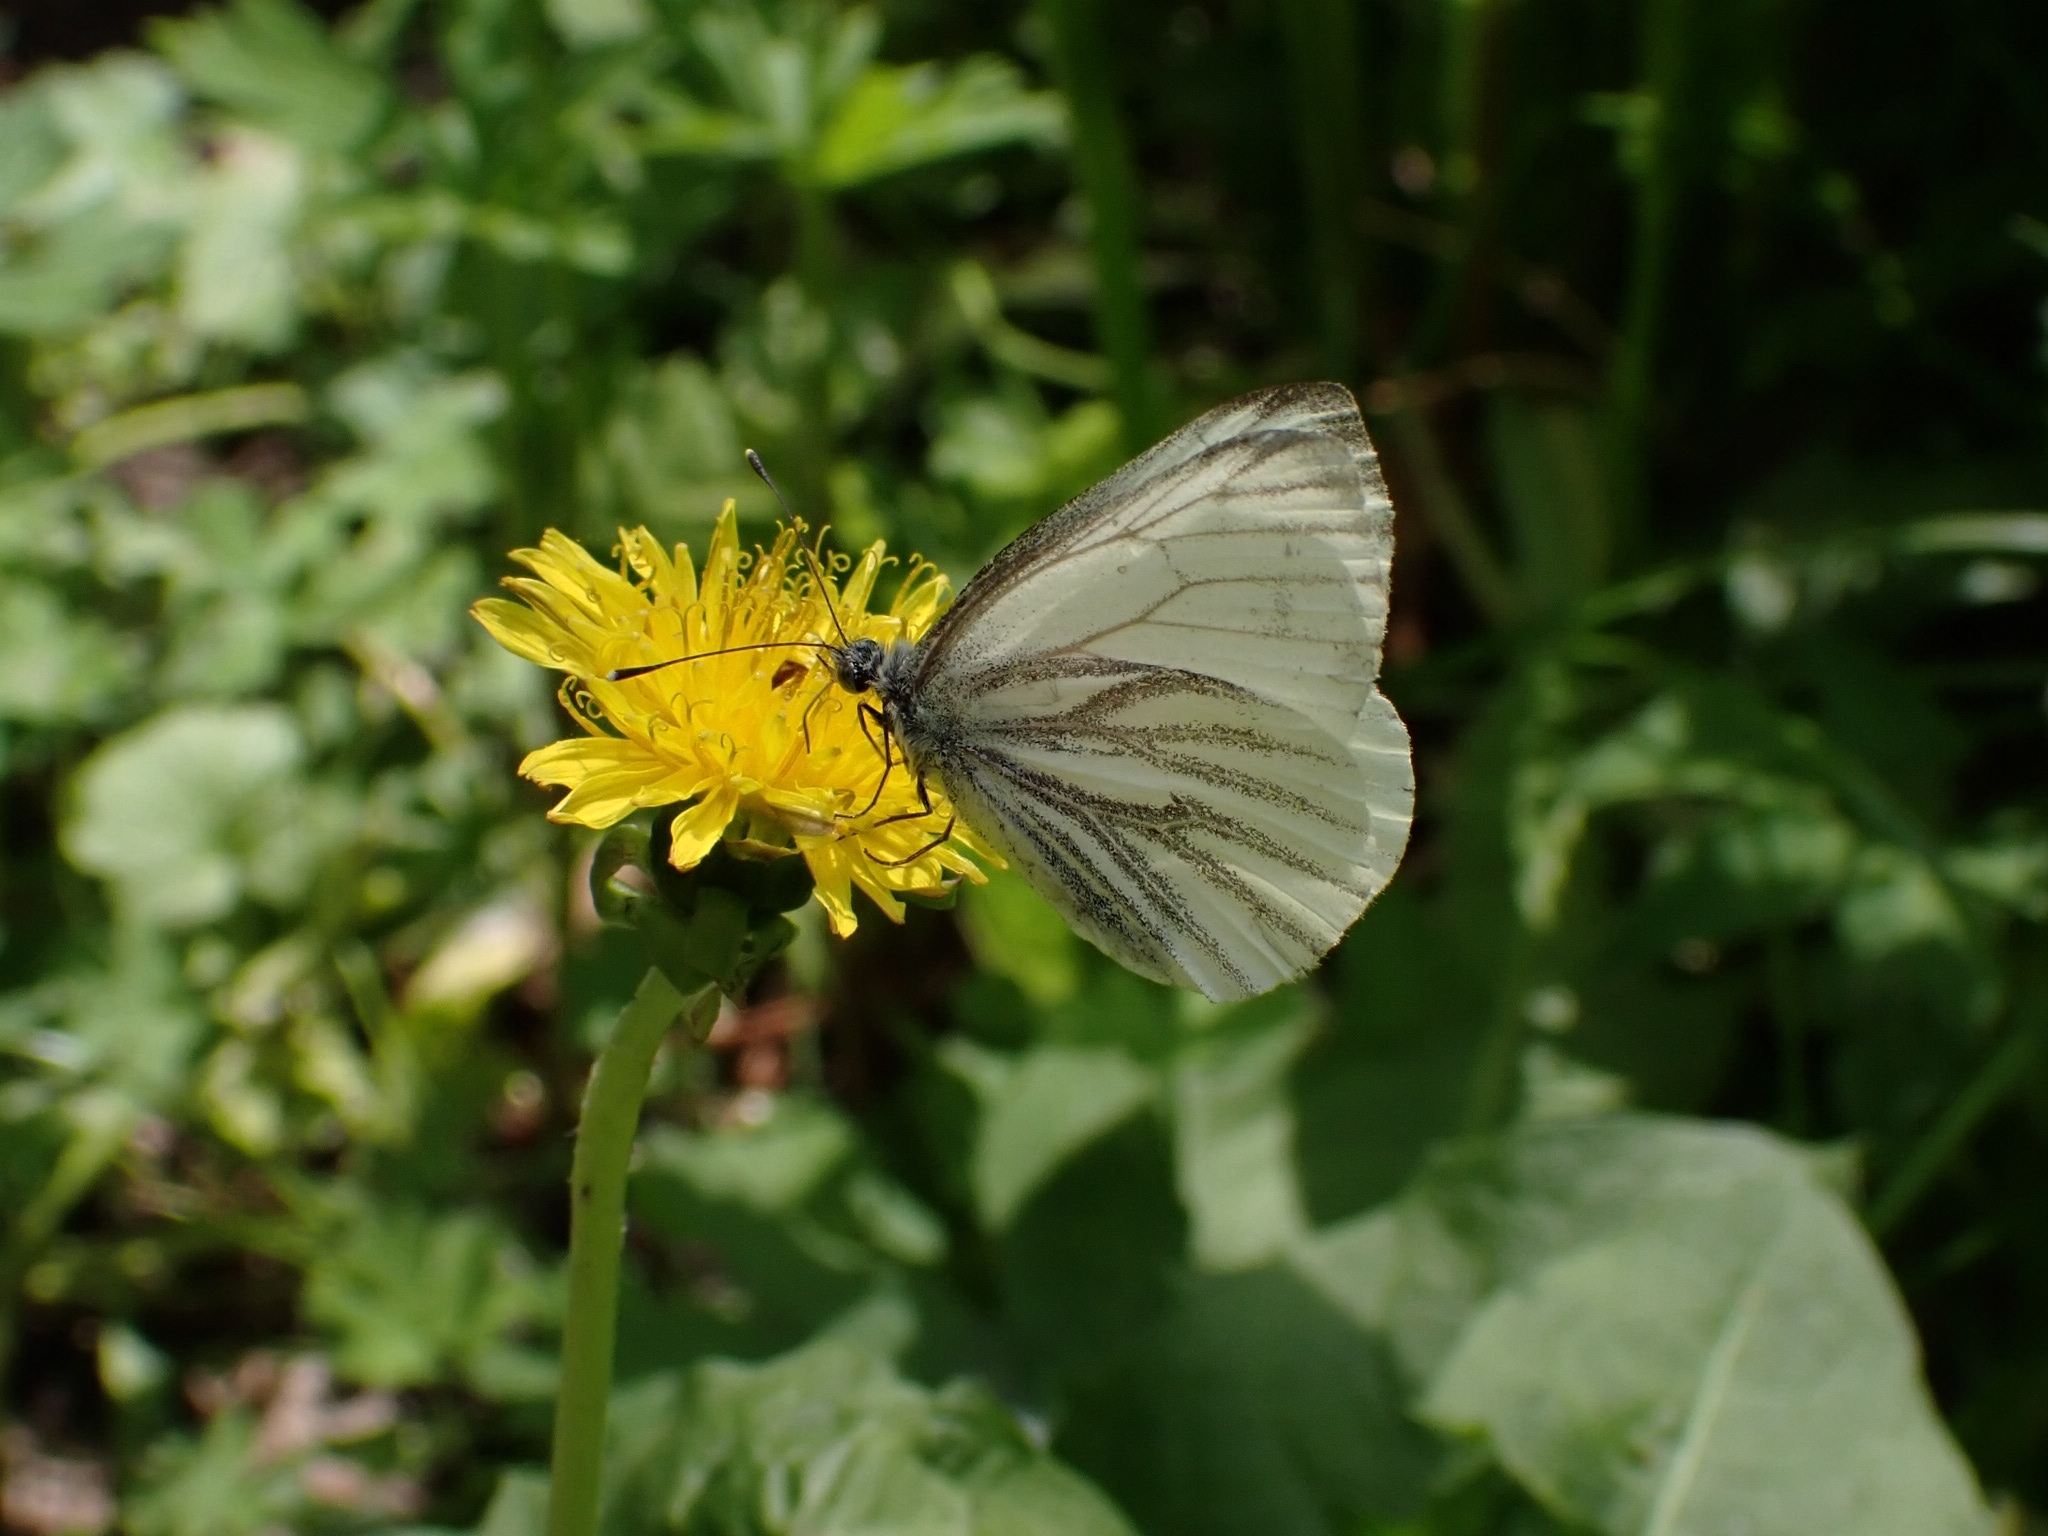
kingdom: Animalia
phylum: Arthropoda
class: Insecta
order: Lepidoptera
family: Pieridae
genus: Pieris
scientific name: Pieris napi
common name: Green-veined white
